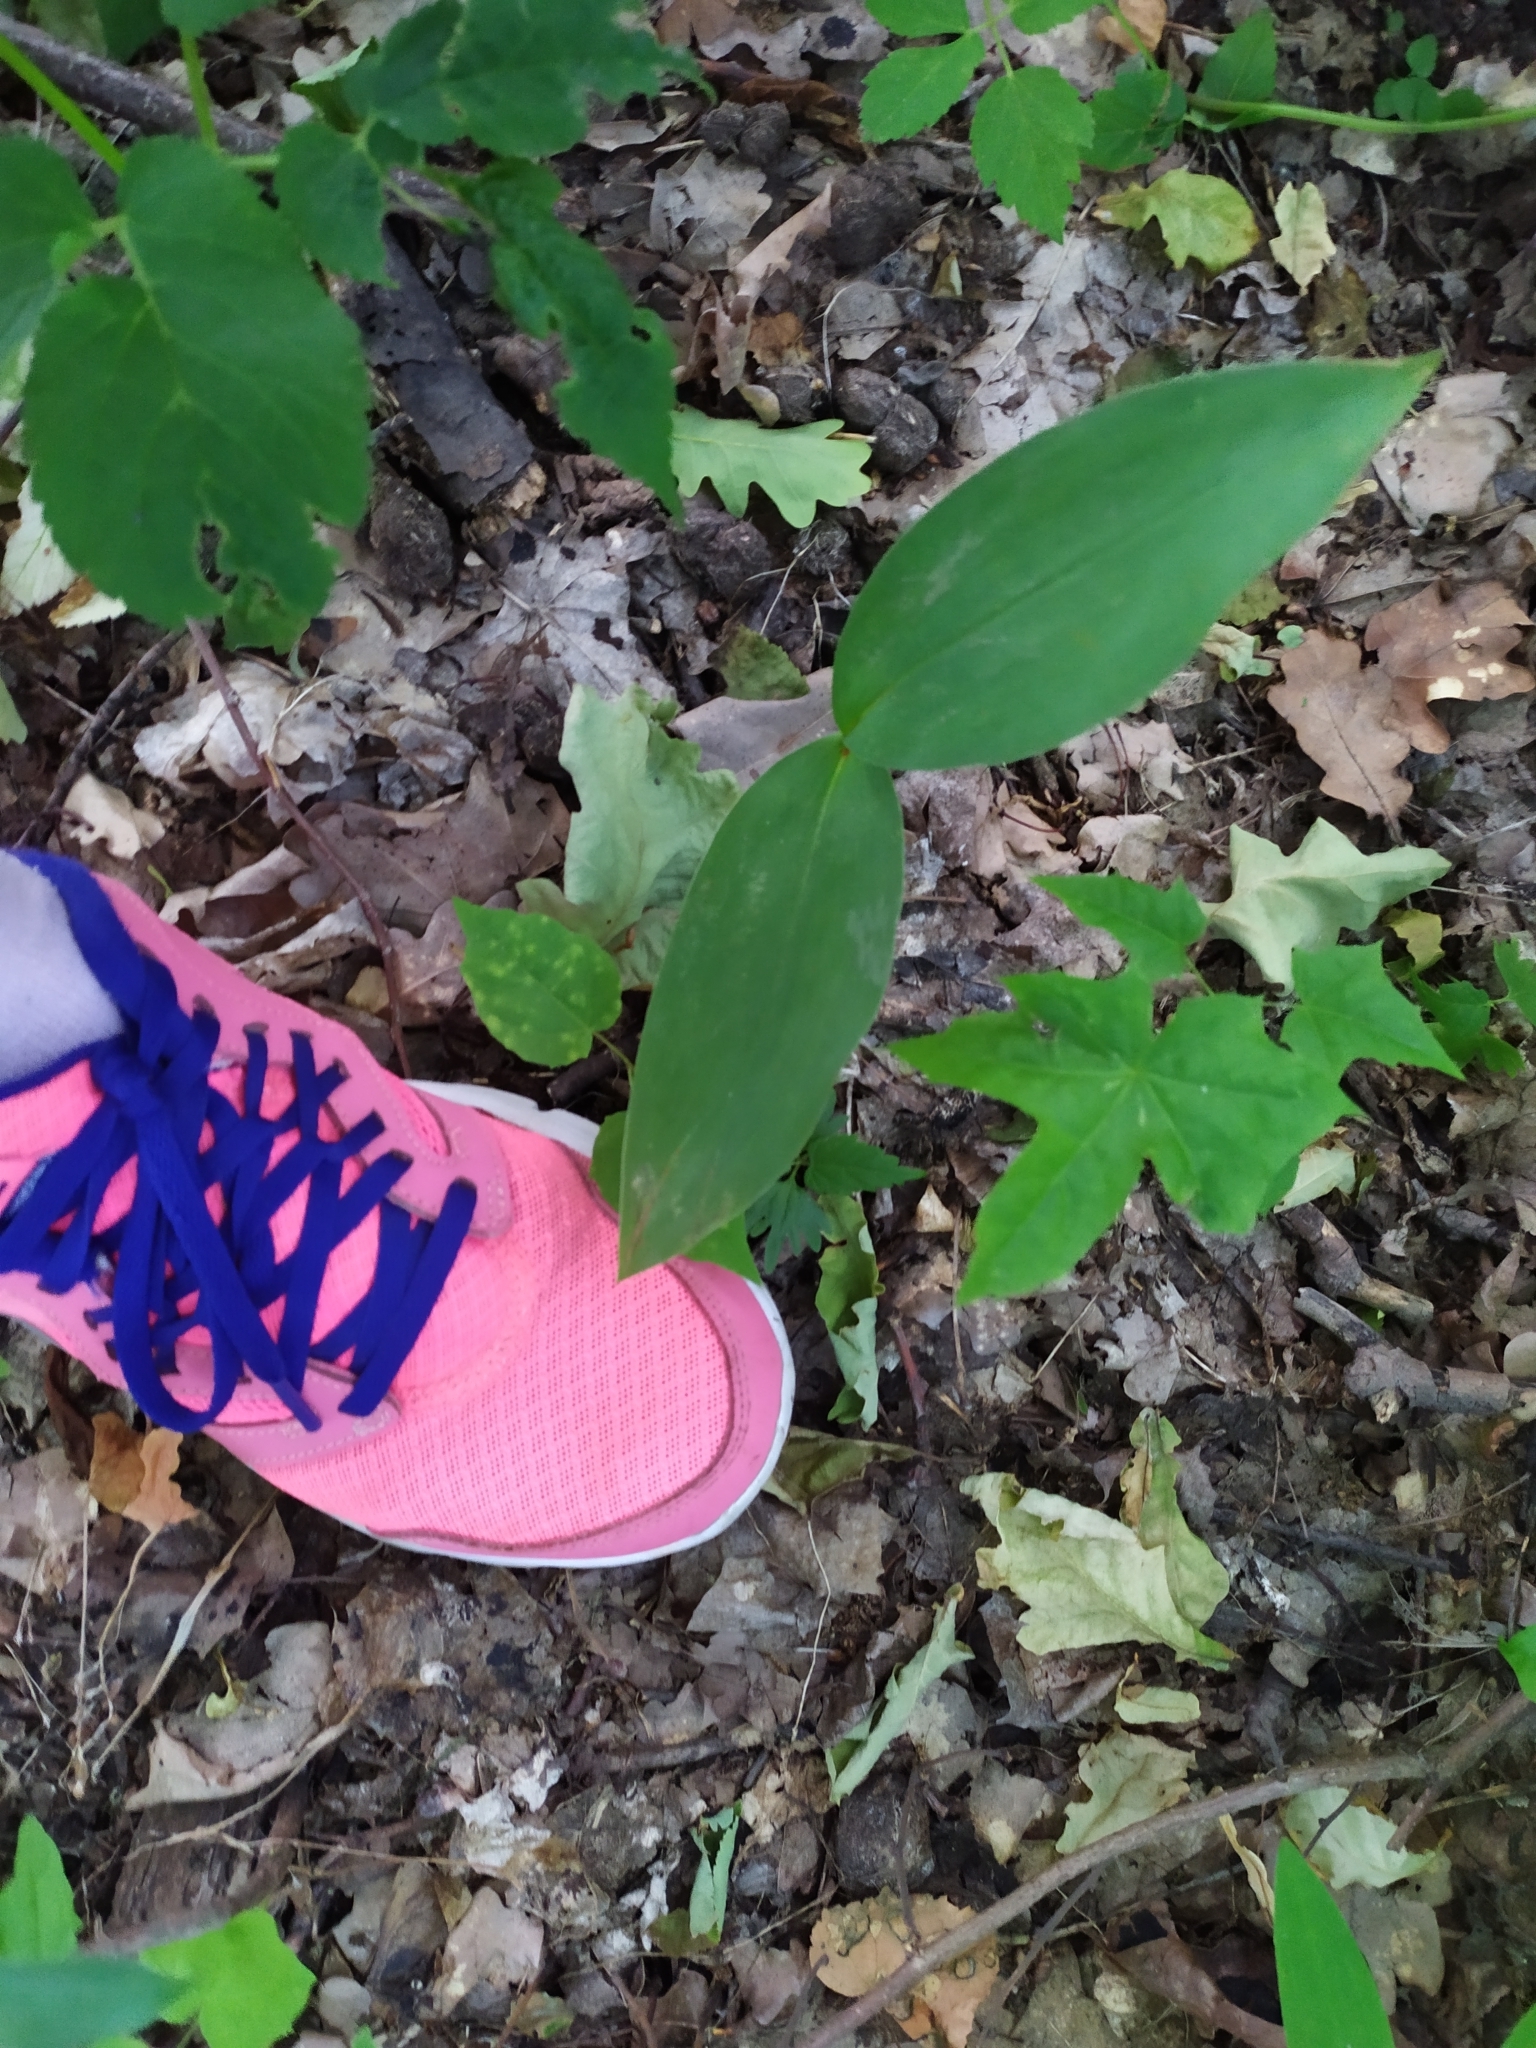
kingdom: Plantae
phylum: Tracheophyta
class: Liliopsida
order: Asparagales
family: Asparagaceae
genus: Convallaria
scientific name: Convallaria majalis
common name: Lily-of-the-valley
